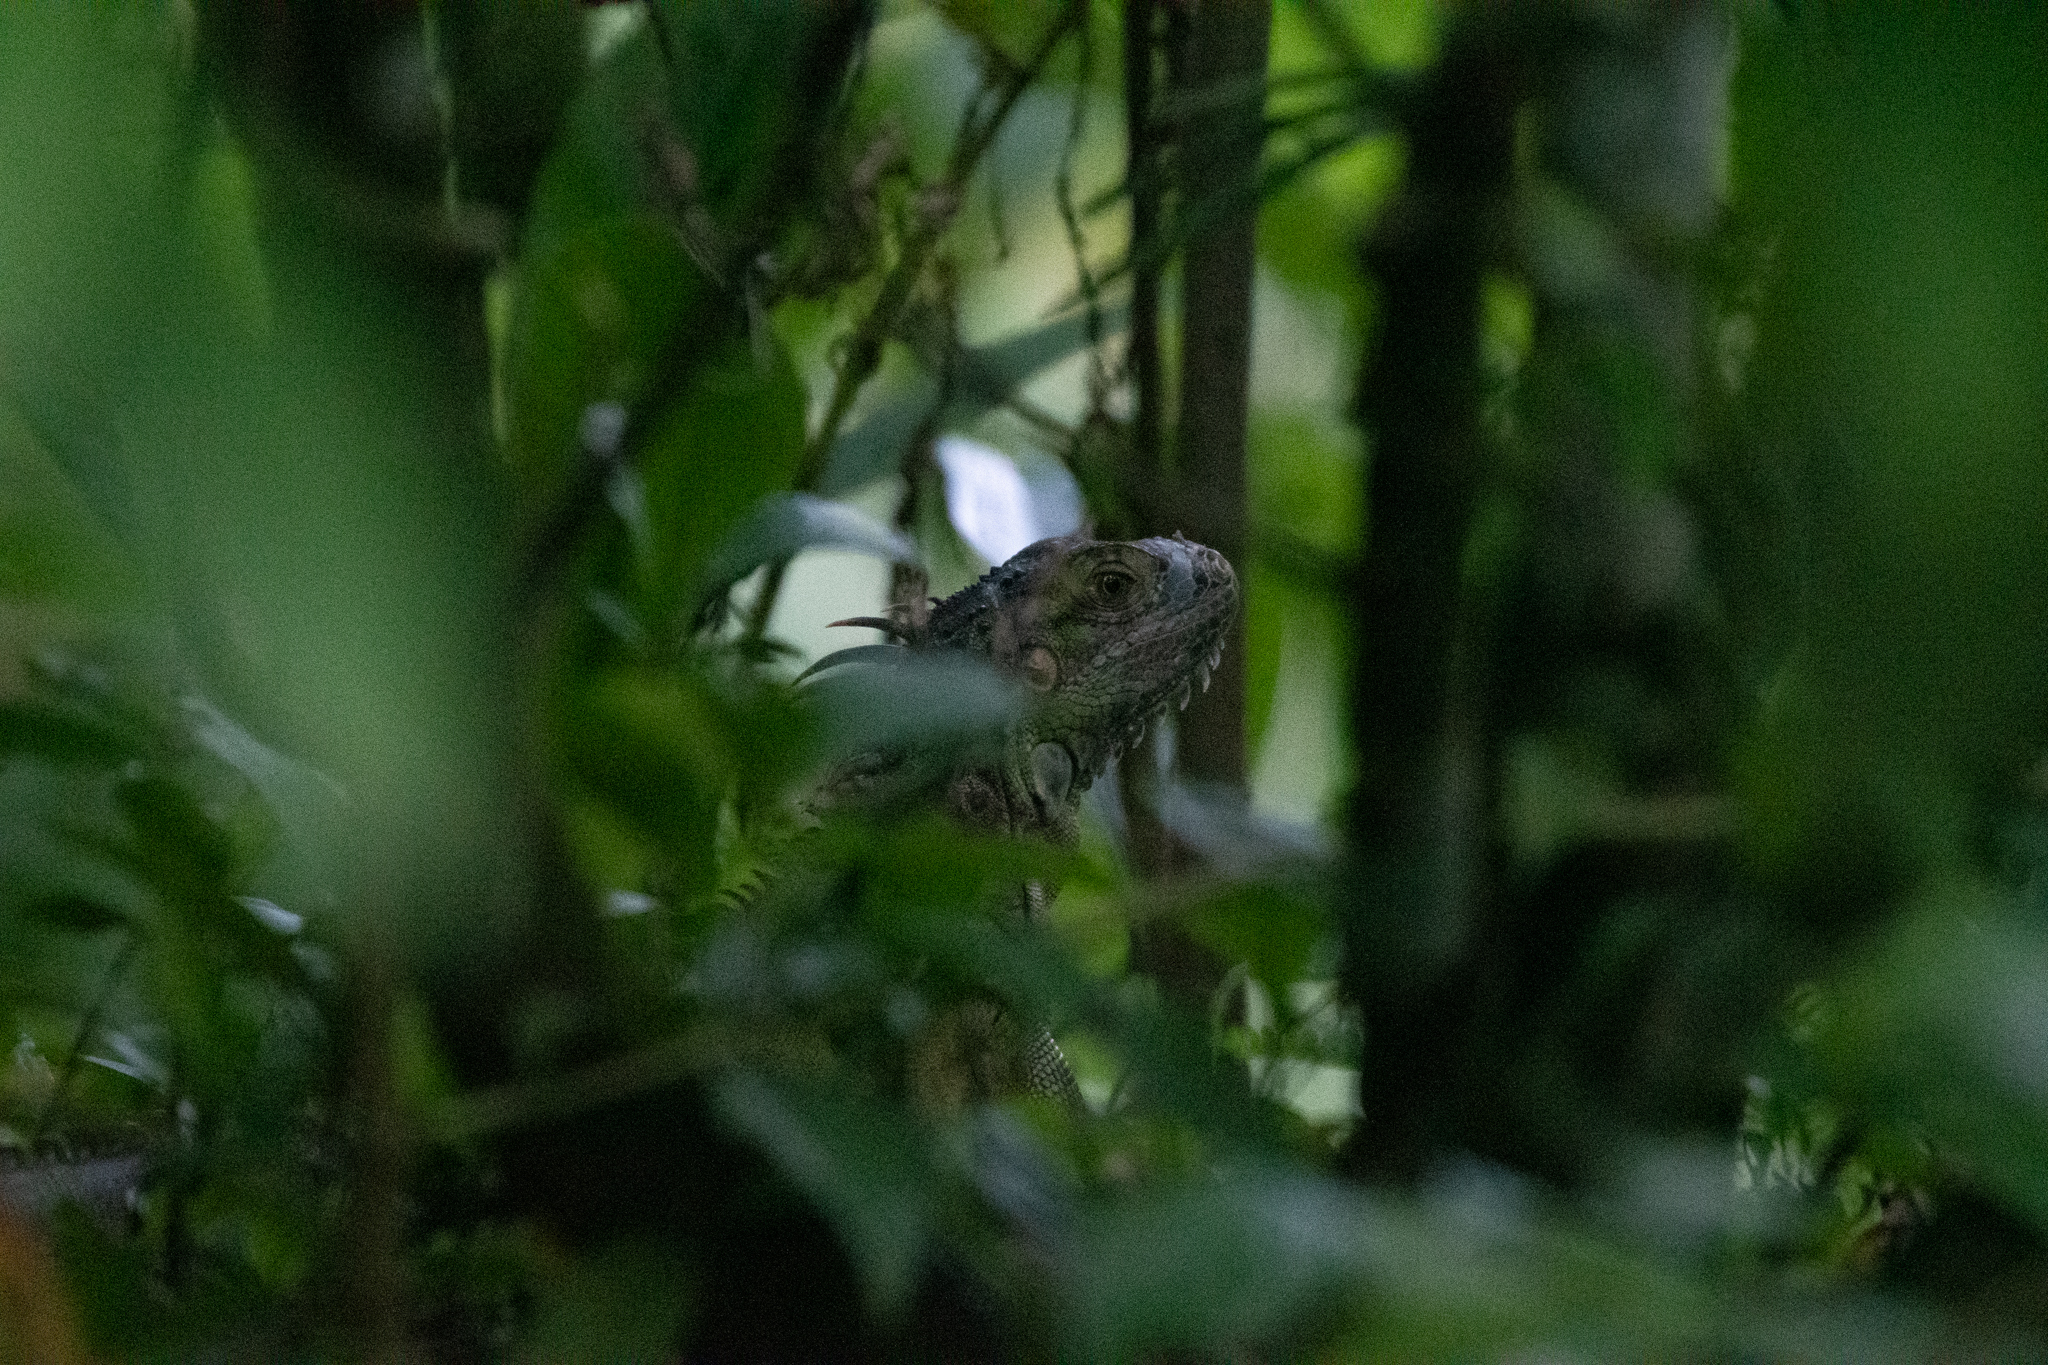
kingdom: Animalia
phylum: Chordata
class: Squamata
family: Iguanidae
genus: Iguana
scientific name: Iguana iguana
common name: Green iguana
